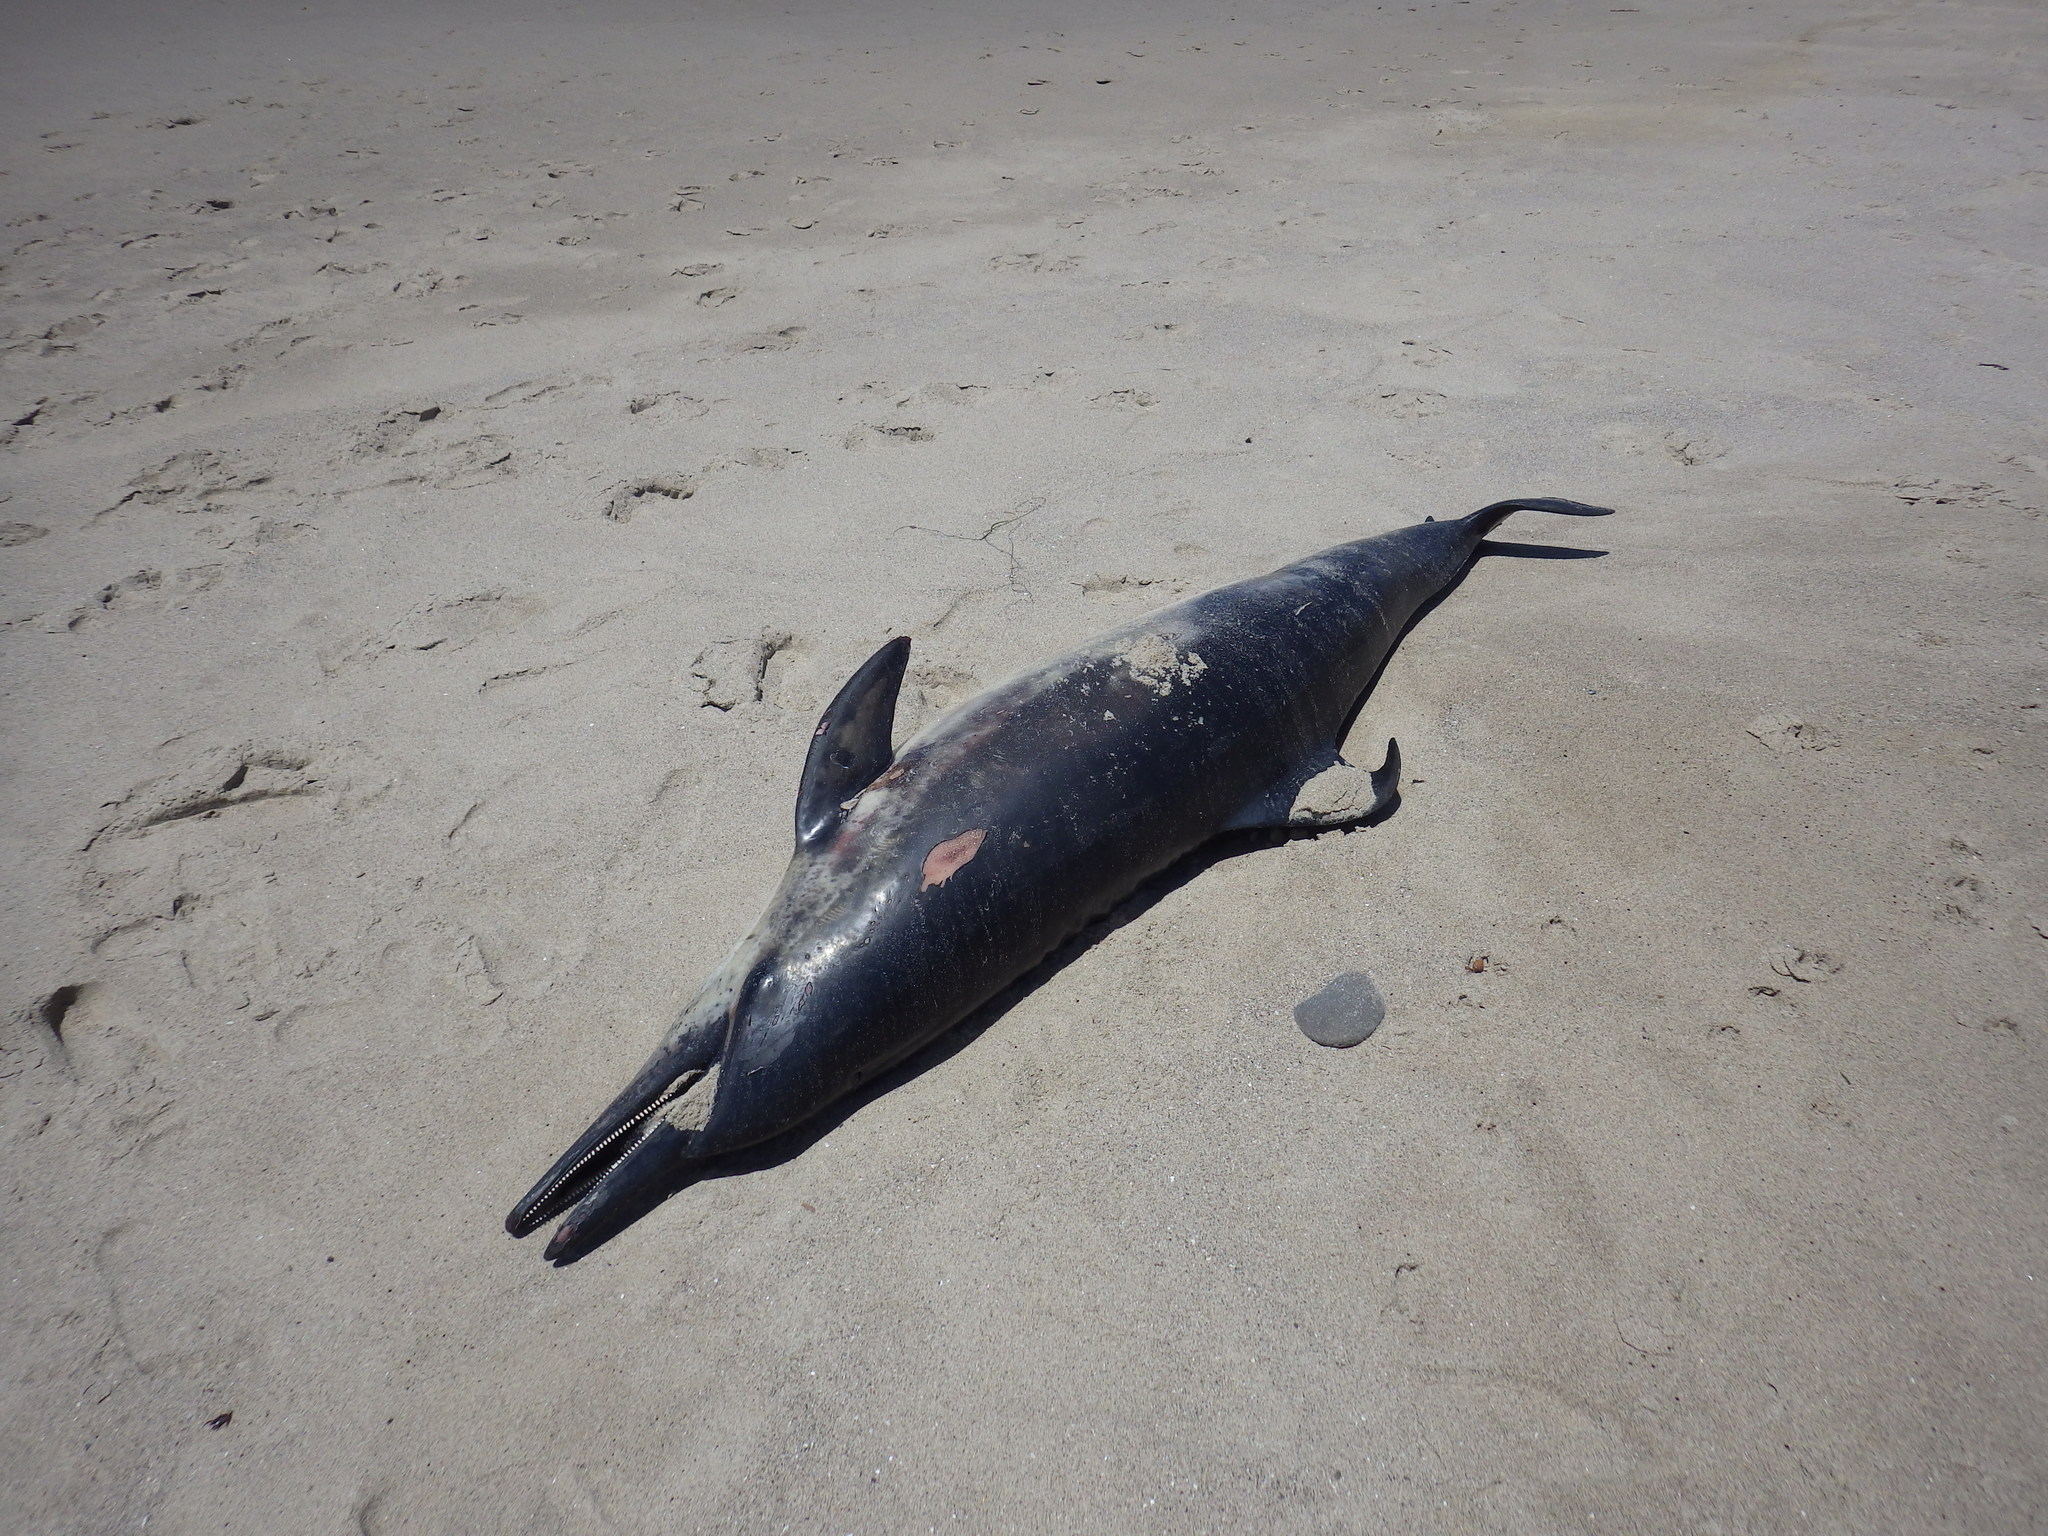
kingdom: Animalia
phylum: Chordata
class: Mammalia
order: Cetacea
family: Delphinidae
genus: Delphinus
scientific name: Delphinus delphis
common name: Common dolphin
